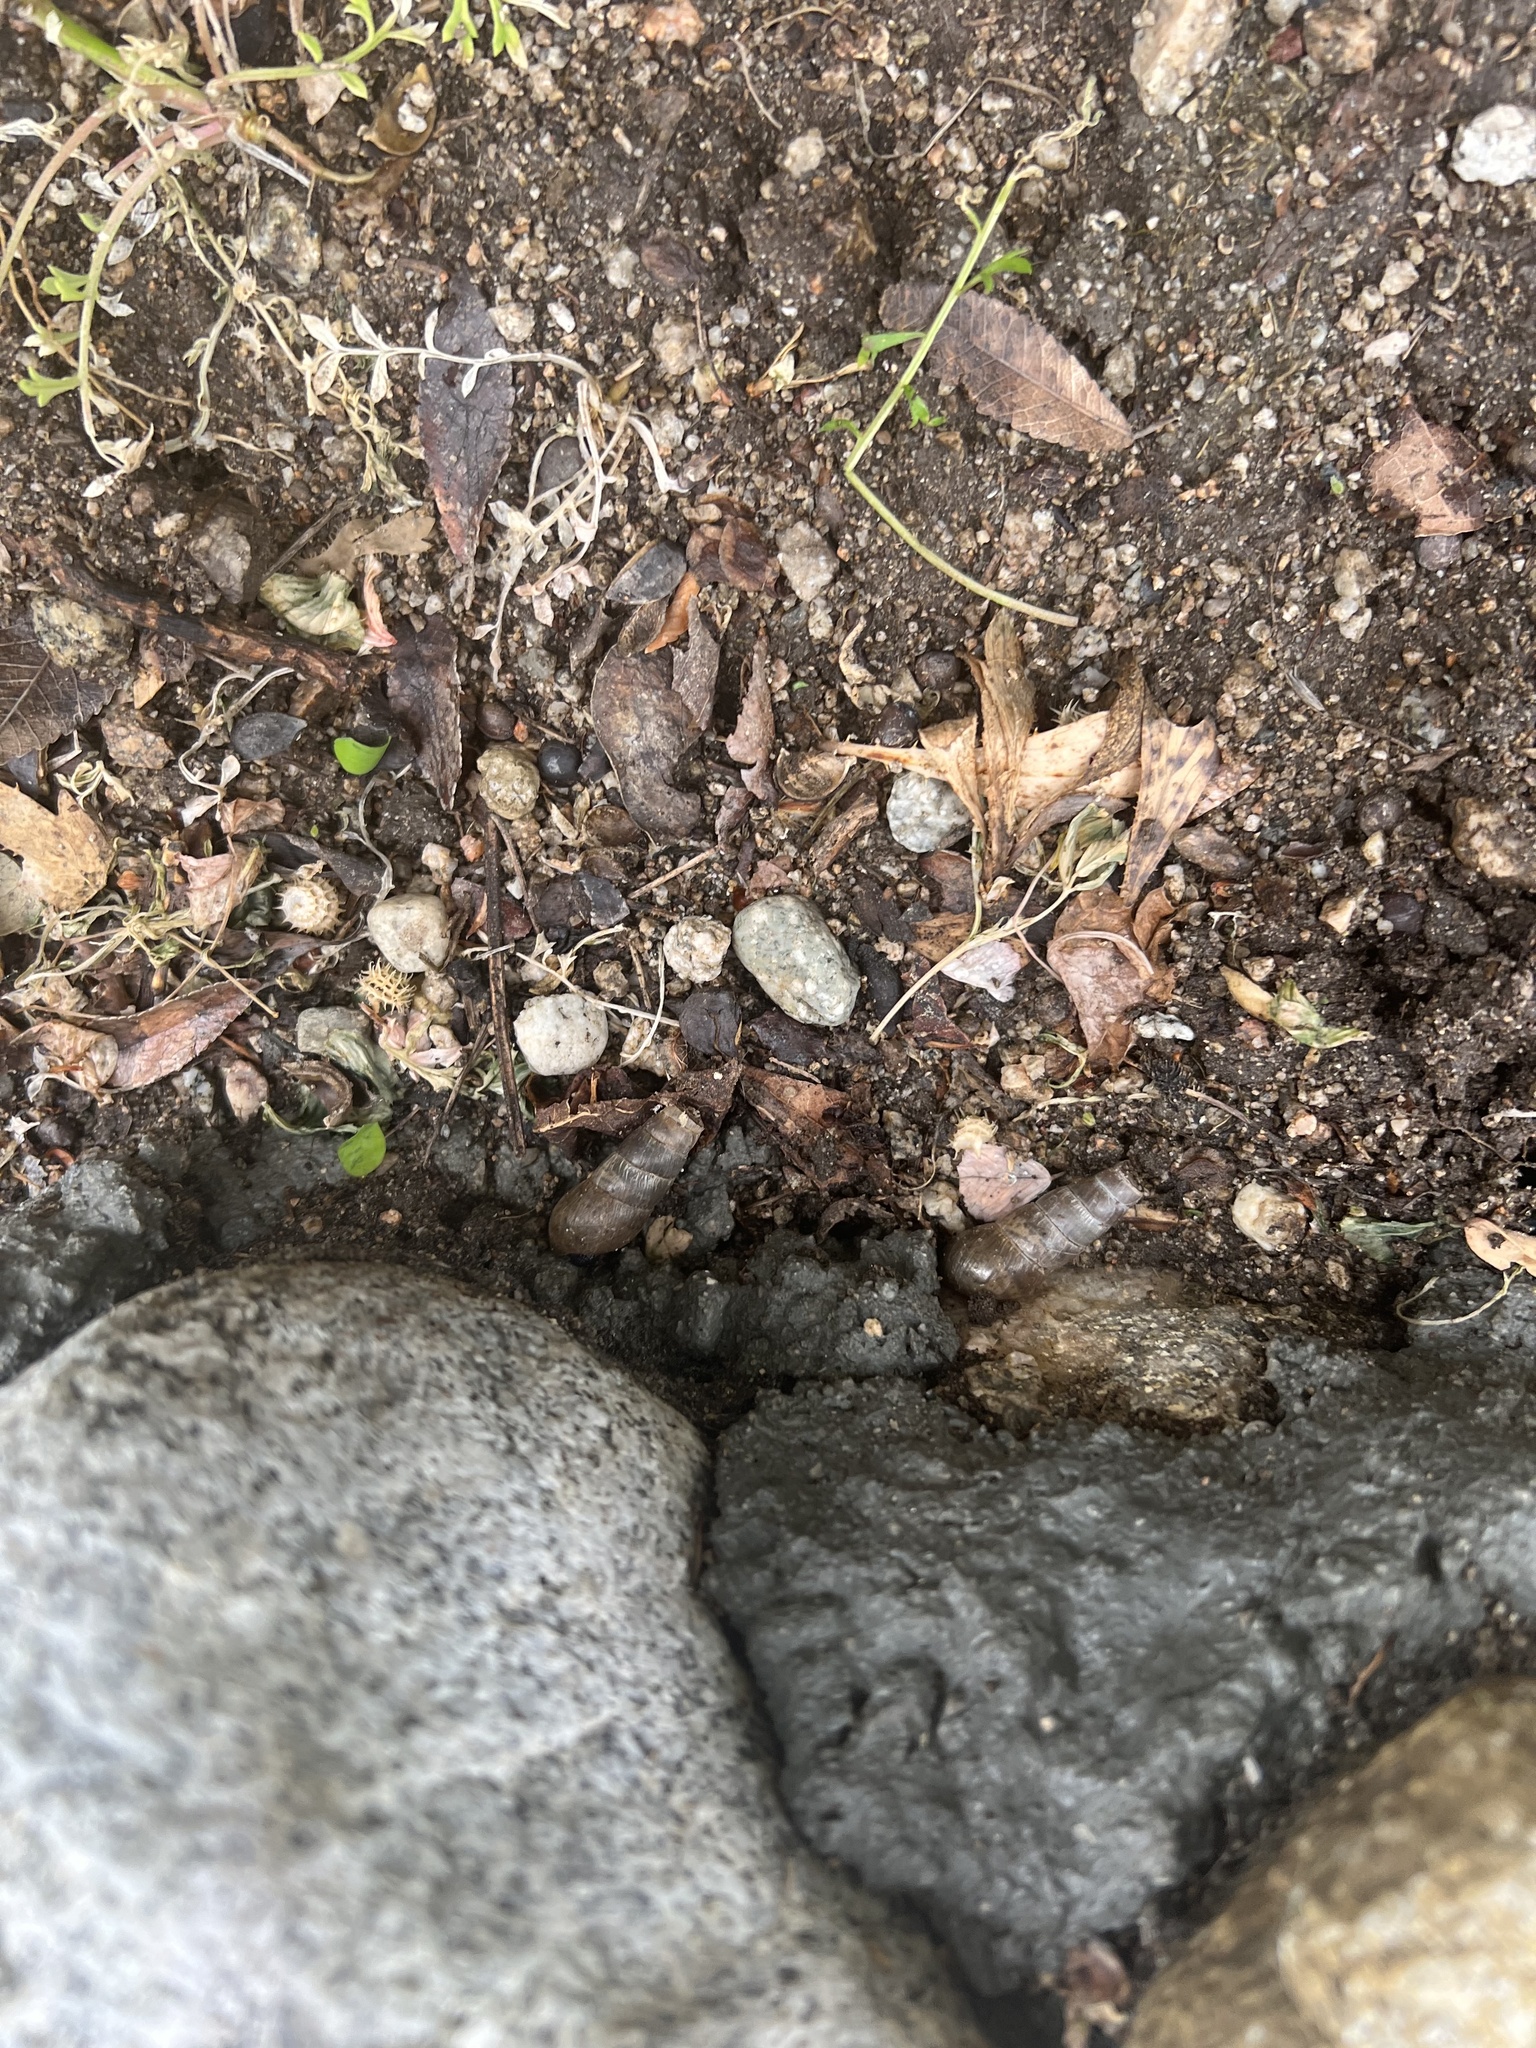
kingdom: Animalia
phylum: Mollusca
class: Gastropoda
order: Stylommatophora
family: Achatinidae
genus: Rumina
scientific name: Rumina decollata
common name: Decollate snail
